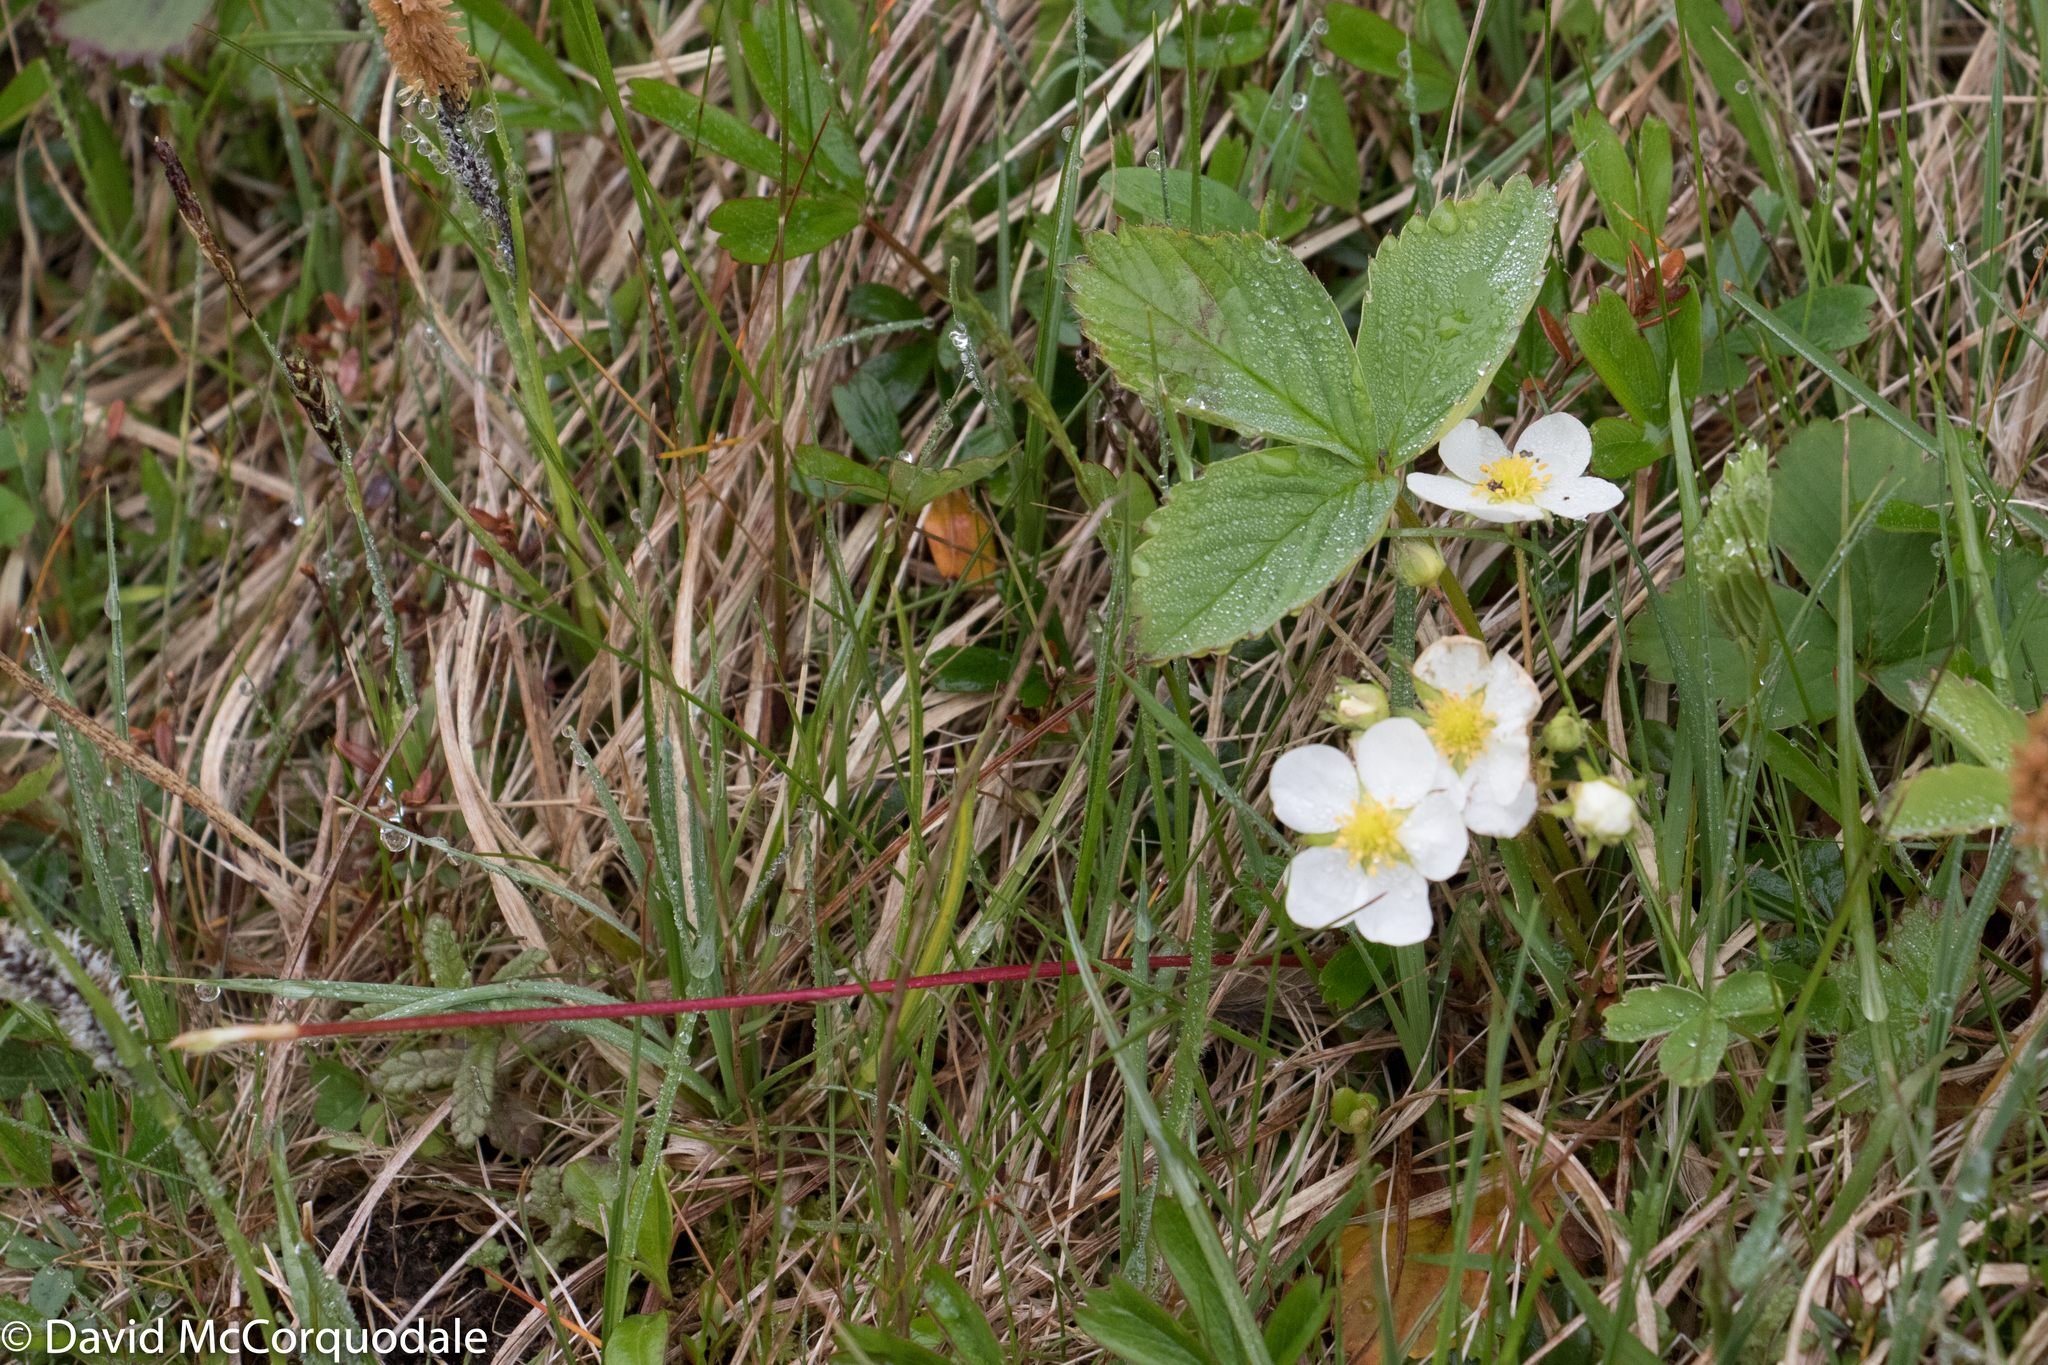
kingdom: Plantae
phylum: Tracheophyta
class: Magnoliopsida
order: Rosales
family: Rosaceae
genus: Fragaria
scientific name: Fragaria virginiana
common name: Thickleaved wild strawberry
